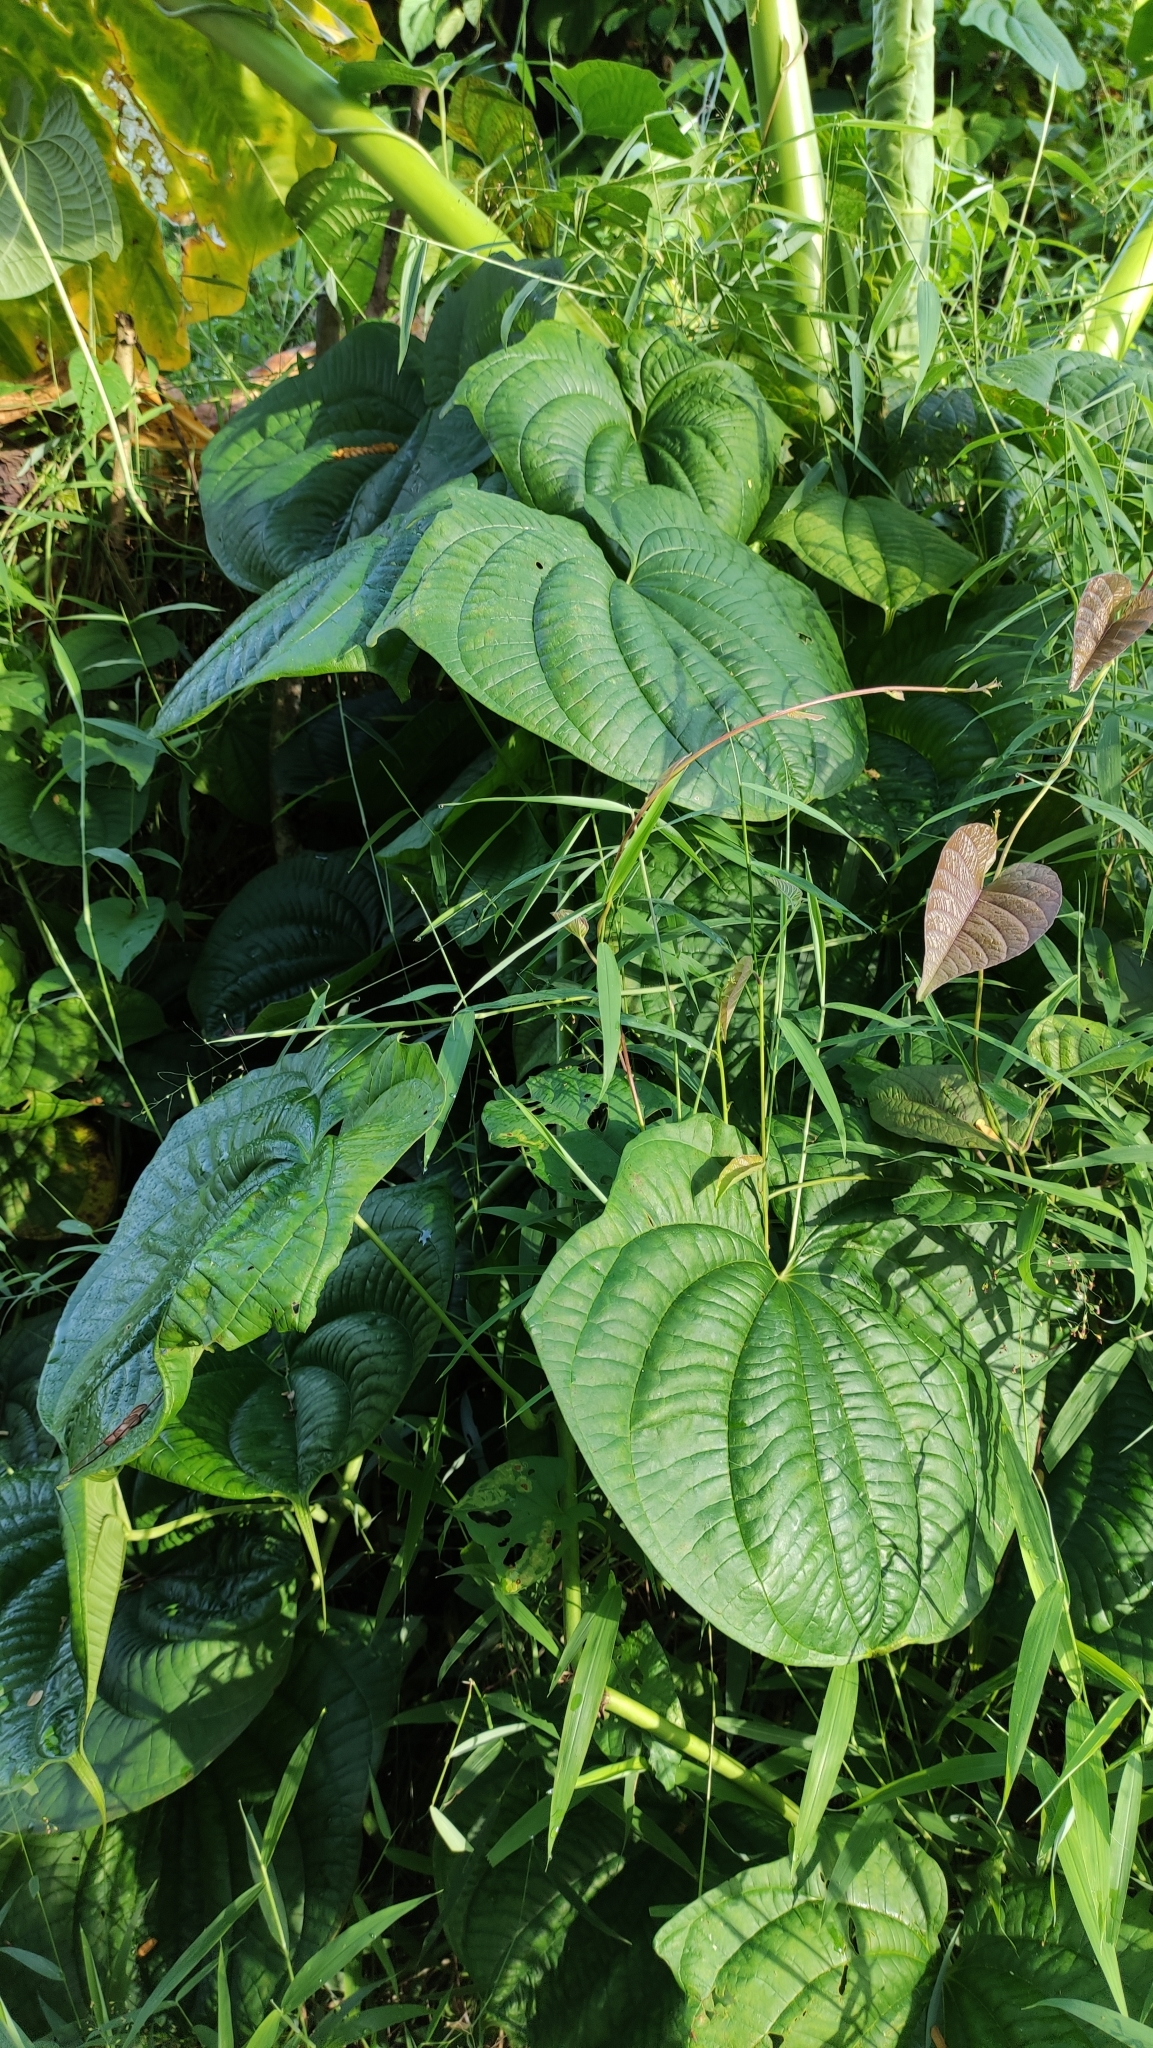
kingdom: Plantae
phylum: Tracheophyta
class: Liliopsida
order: Dioscoreales
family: Dioscoreaceae
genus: Dioscorea
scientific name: Dioscorea sansibarensis
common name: Zanzibar yam
